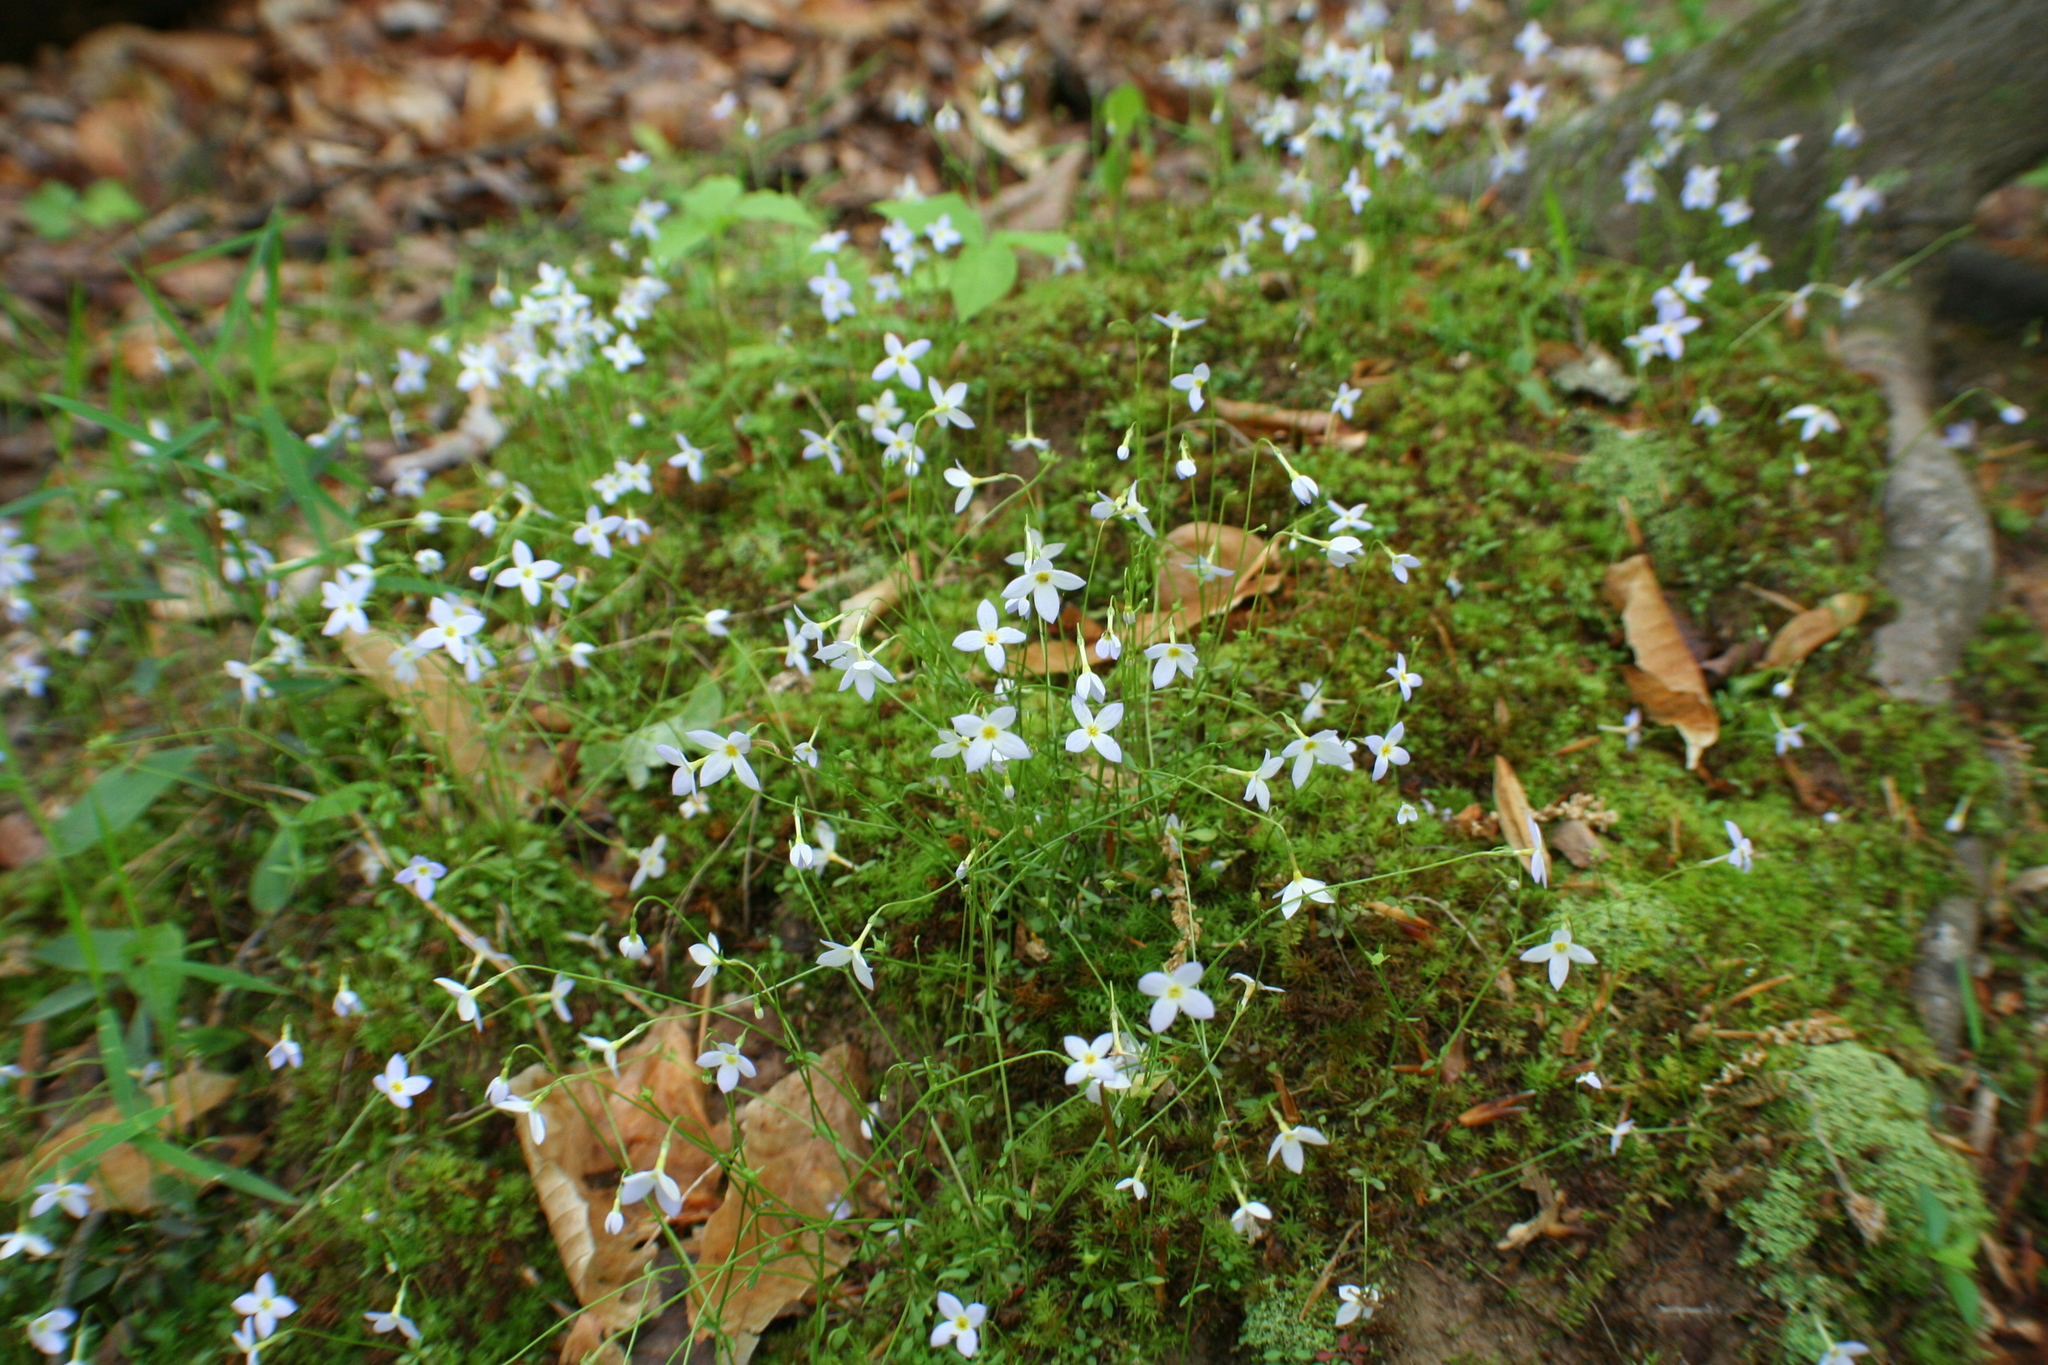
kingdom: Plantae
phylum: Tracheophyta
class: Magnoliopsida
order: Gentianales
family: Rubiaceae
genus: Houstonia
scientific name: Houstonia caerulea
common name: Bluets
